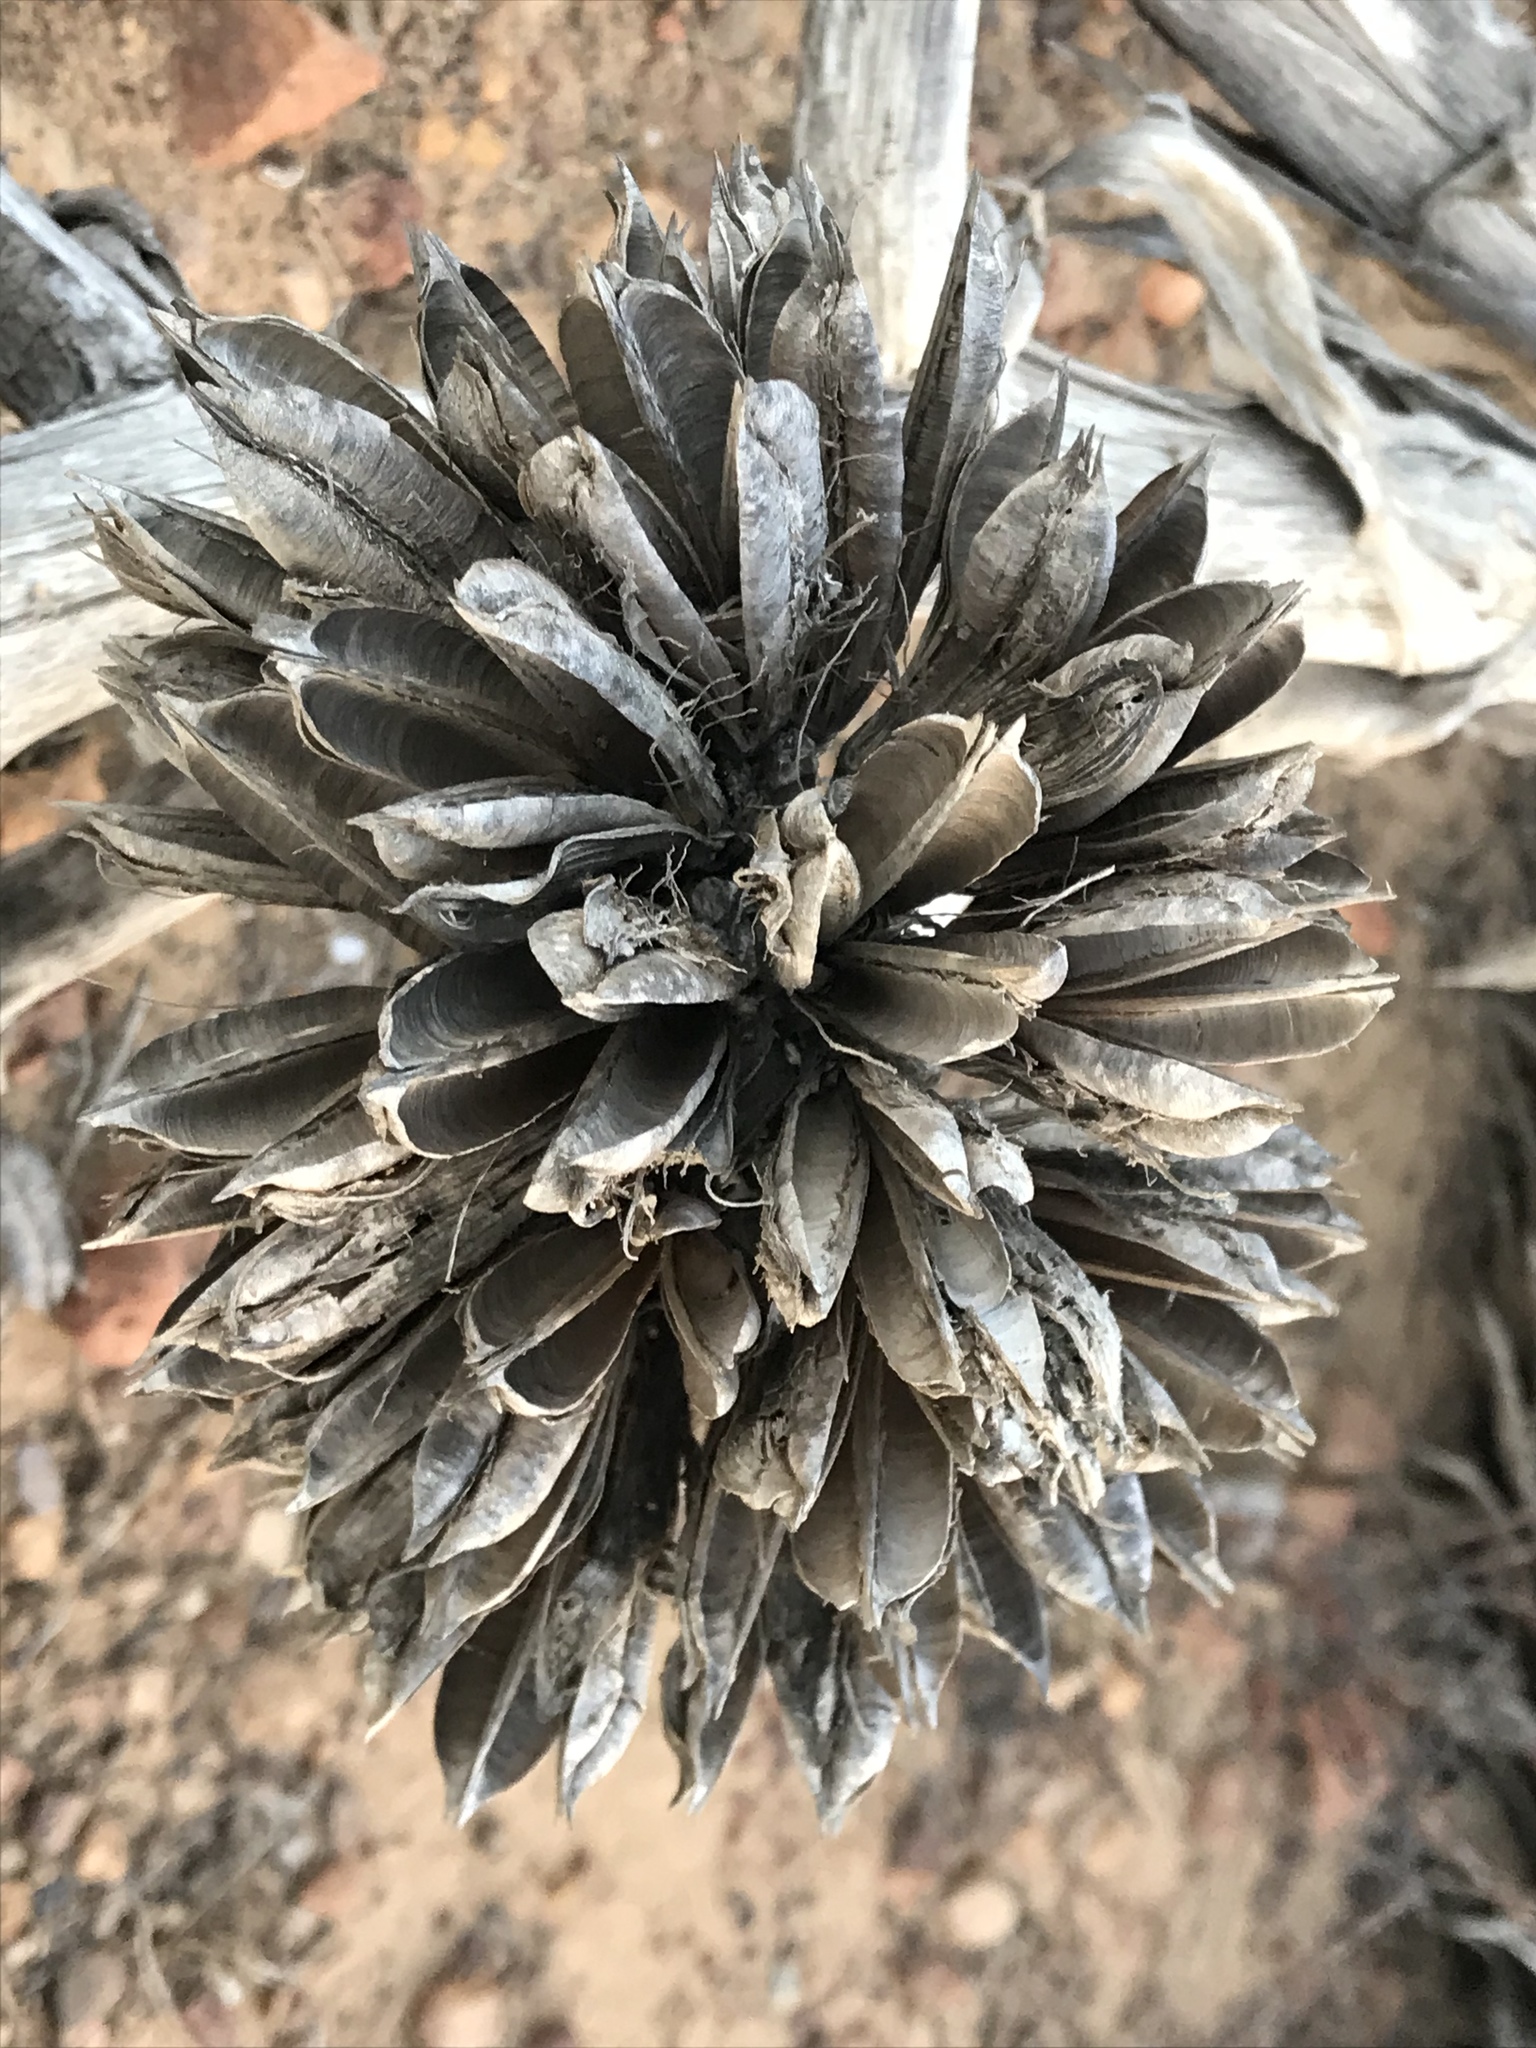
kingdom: Plantae
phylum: Tracheophyta
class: Liliopsida
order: Asparagales
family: Asparagaceae
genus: Agave
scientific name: Agave shawii
